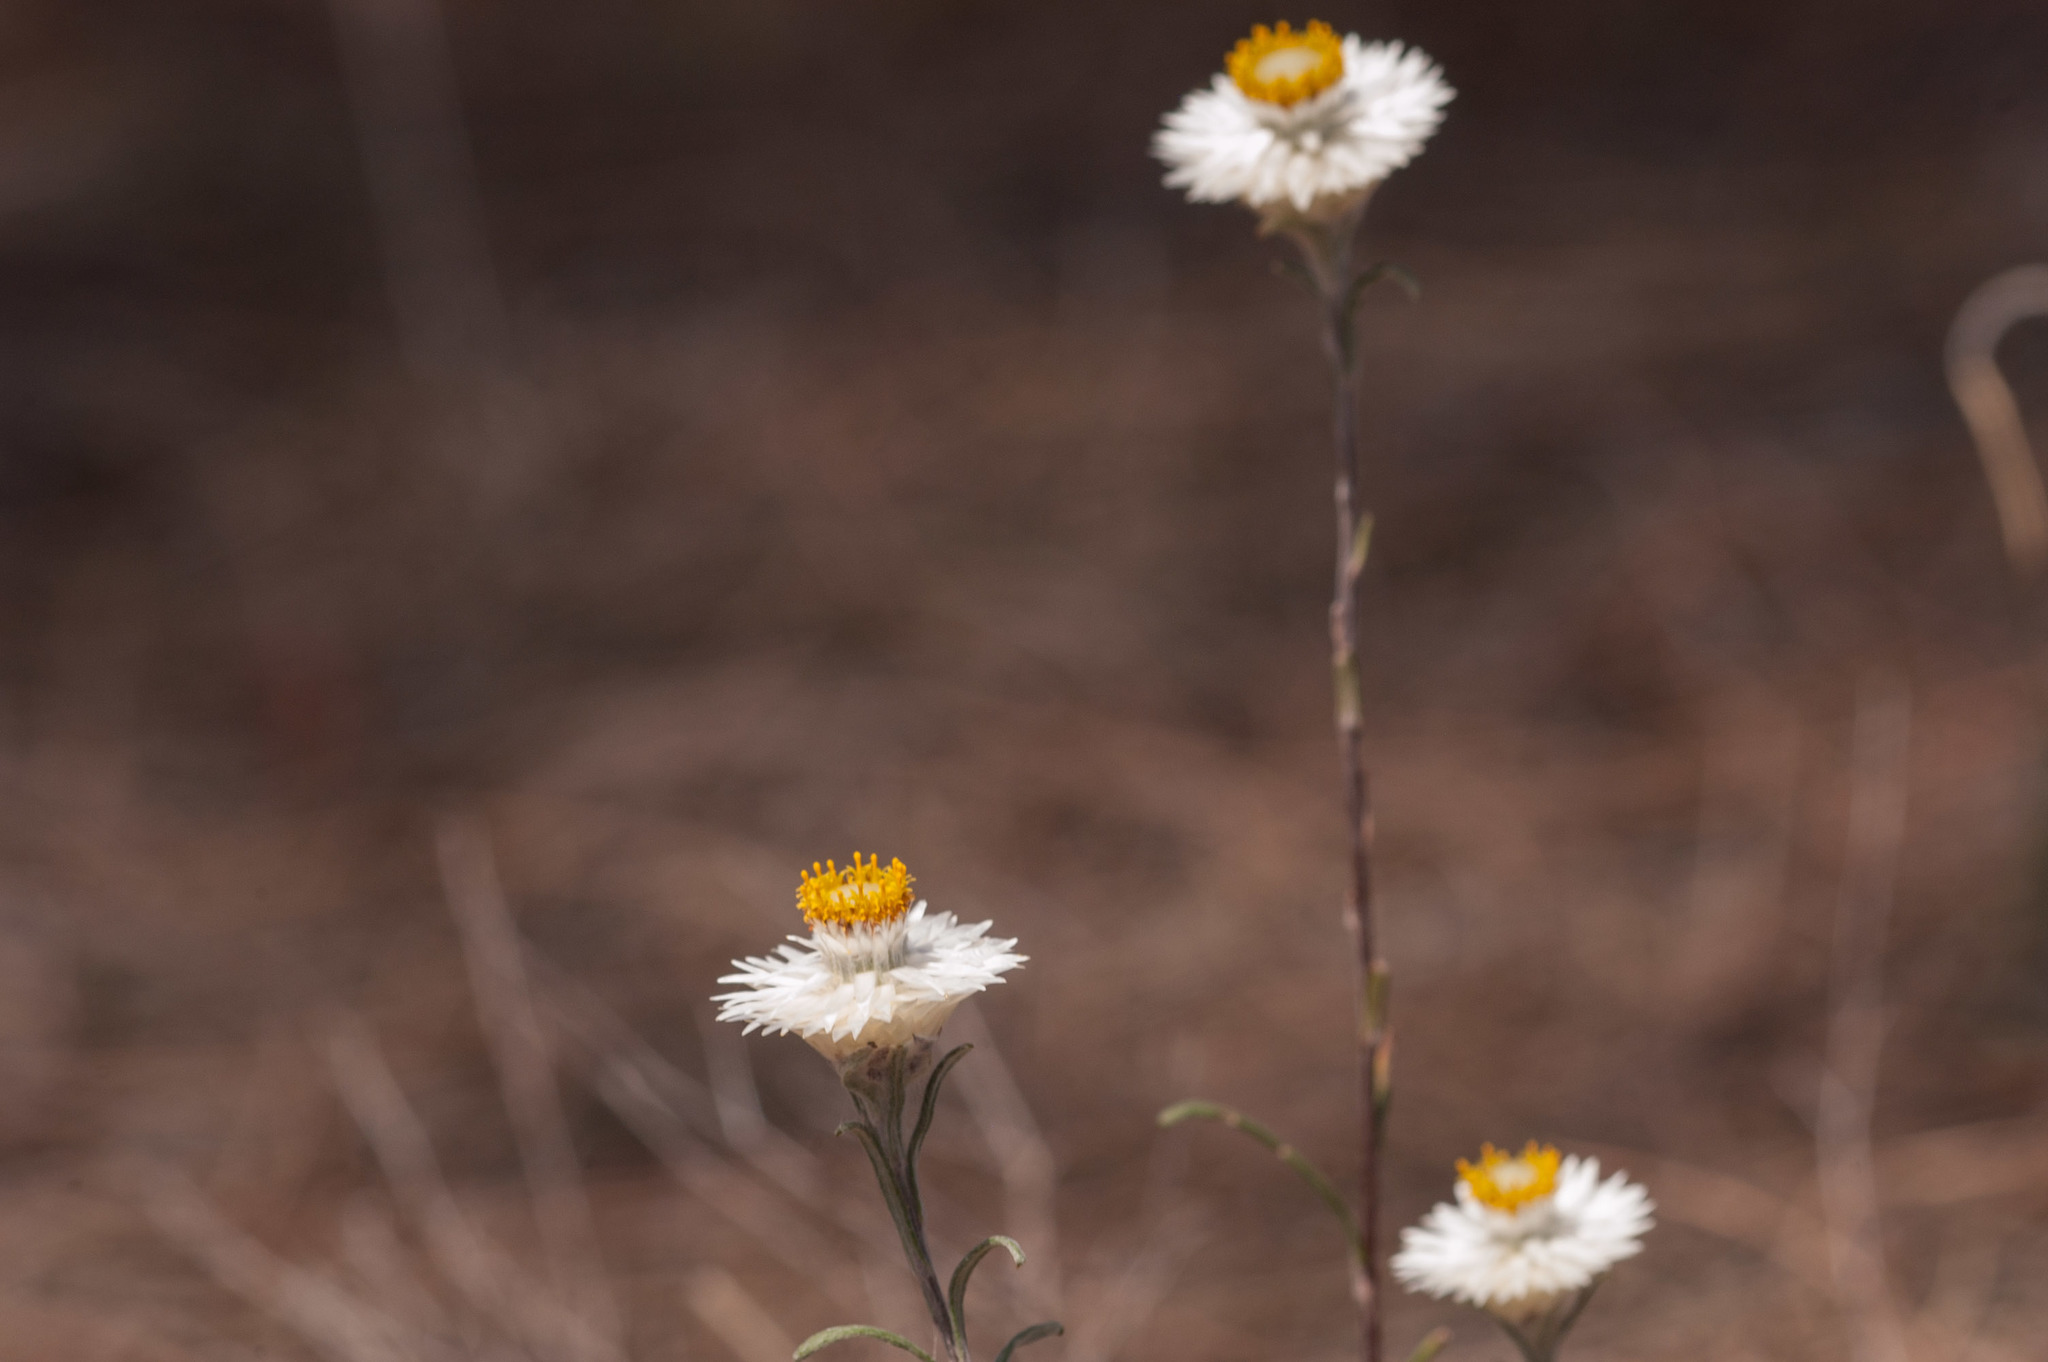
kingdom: Plantae
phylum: Tracheophyta
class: Magnoliopsida
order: Asterales
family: Asteraceae
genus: Helichrysum
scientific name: Helichrysum leucopsideum
